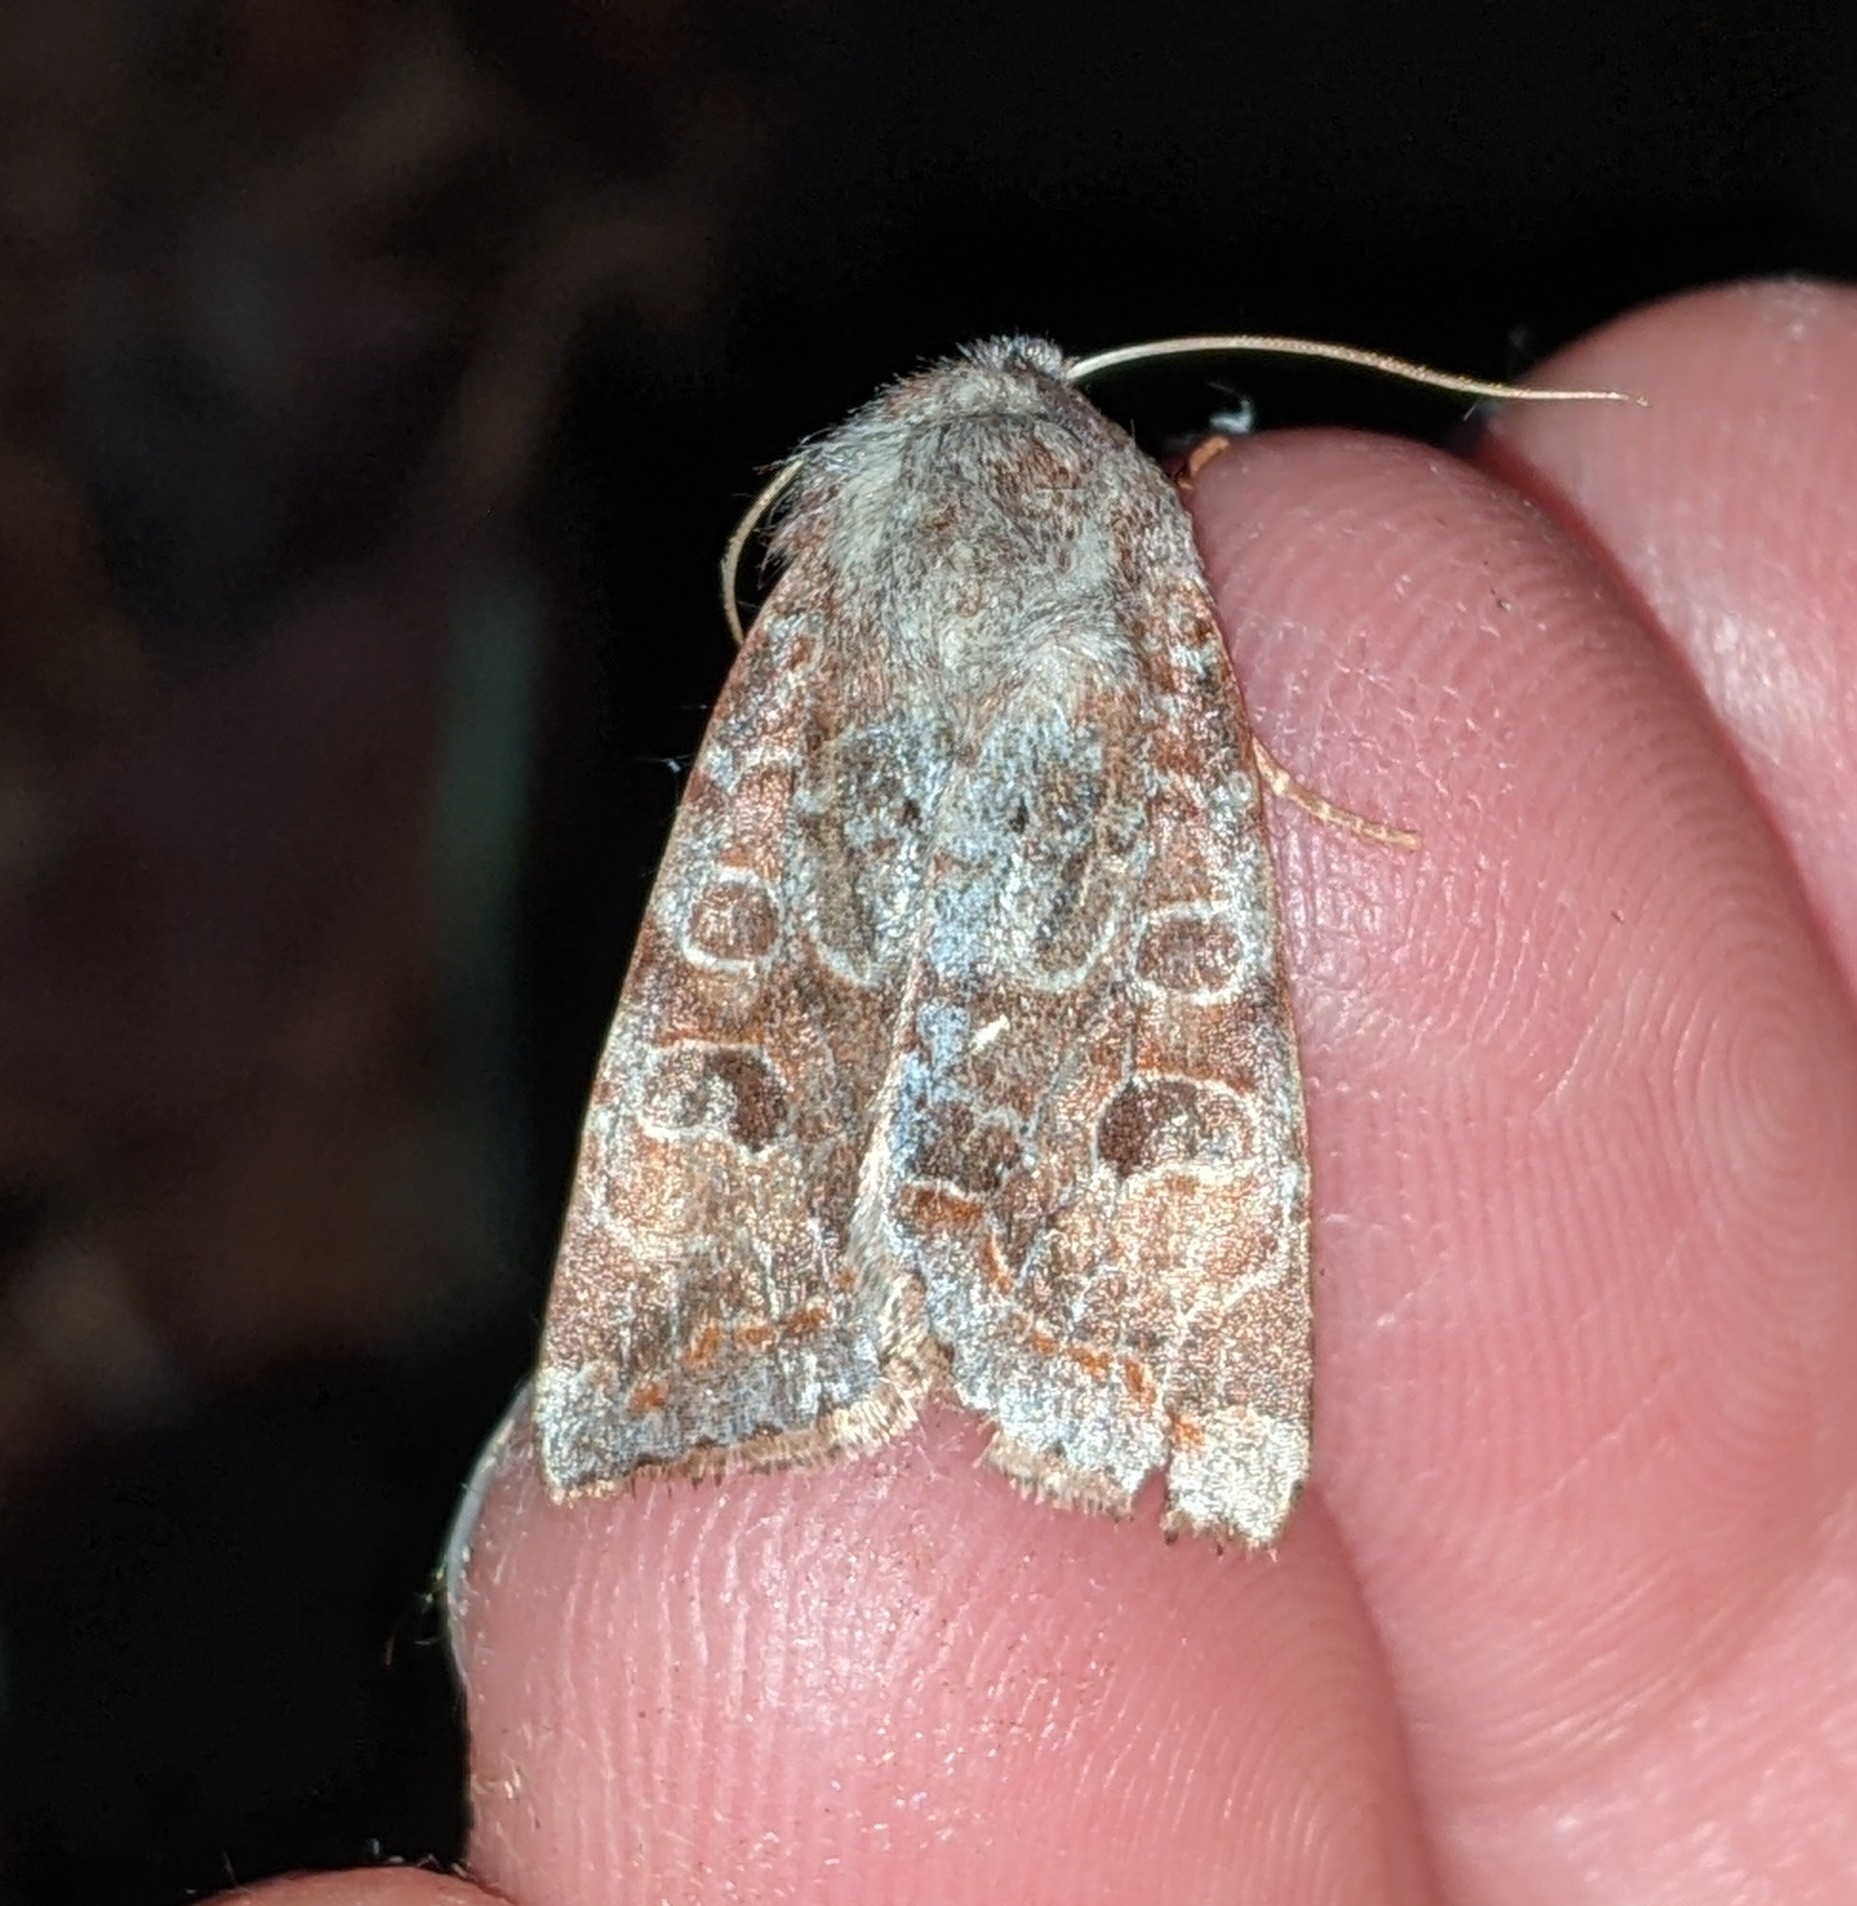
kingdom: Animalia
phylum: Arthropoda
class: Insecta
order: Lepidoptera
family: Noctuidae
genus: Orthosia
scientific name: Orthosia revicta
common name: Rusty whitesided caterpillar
